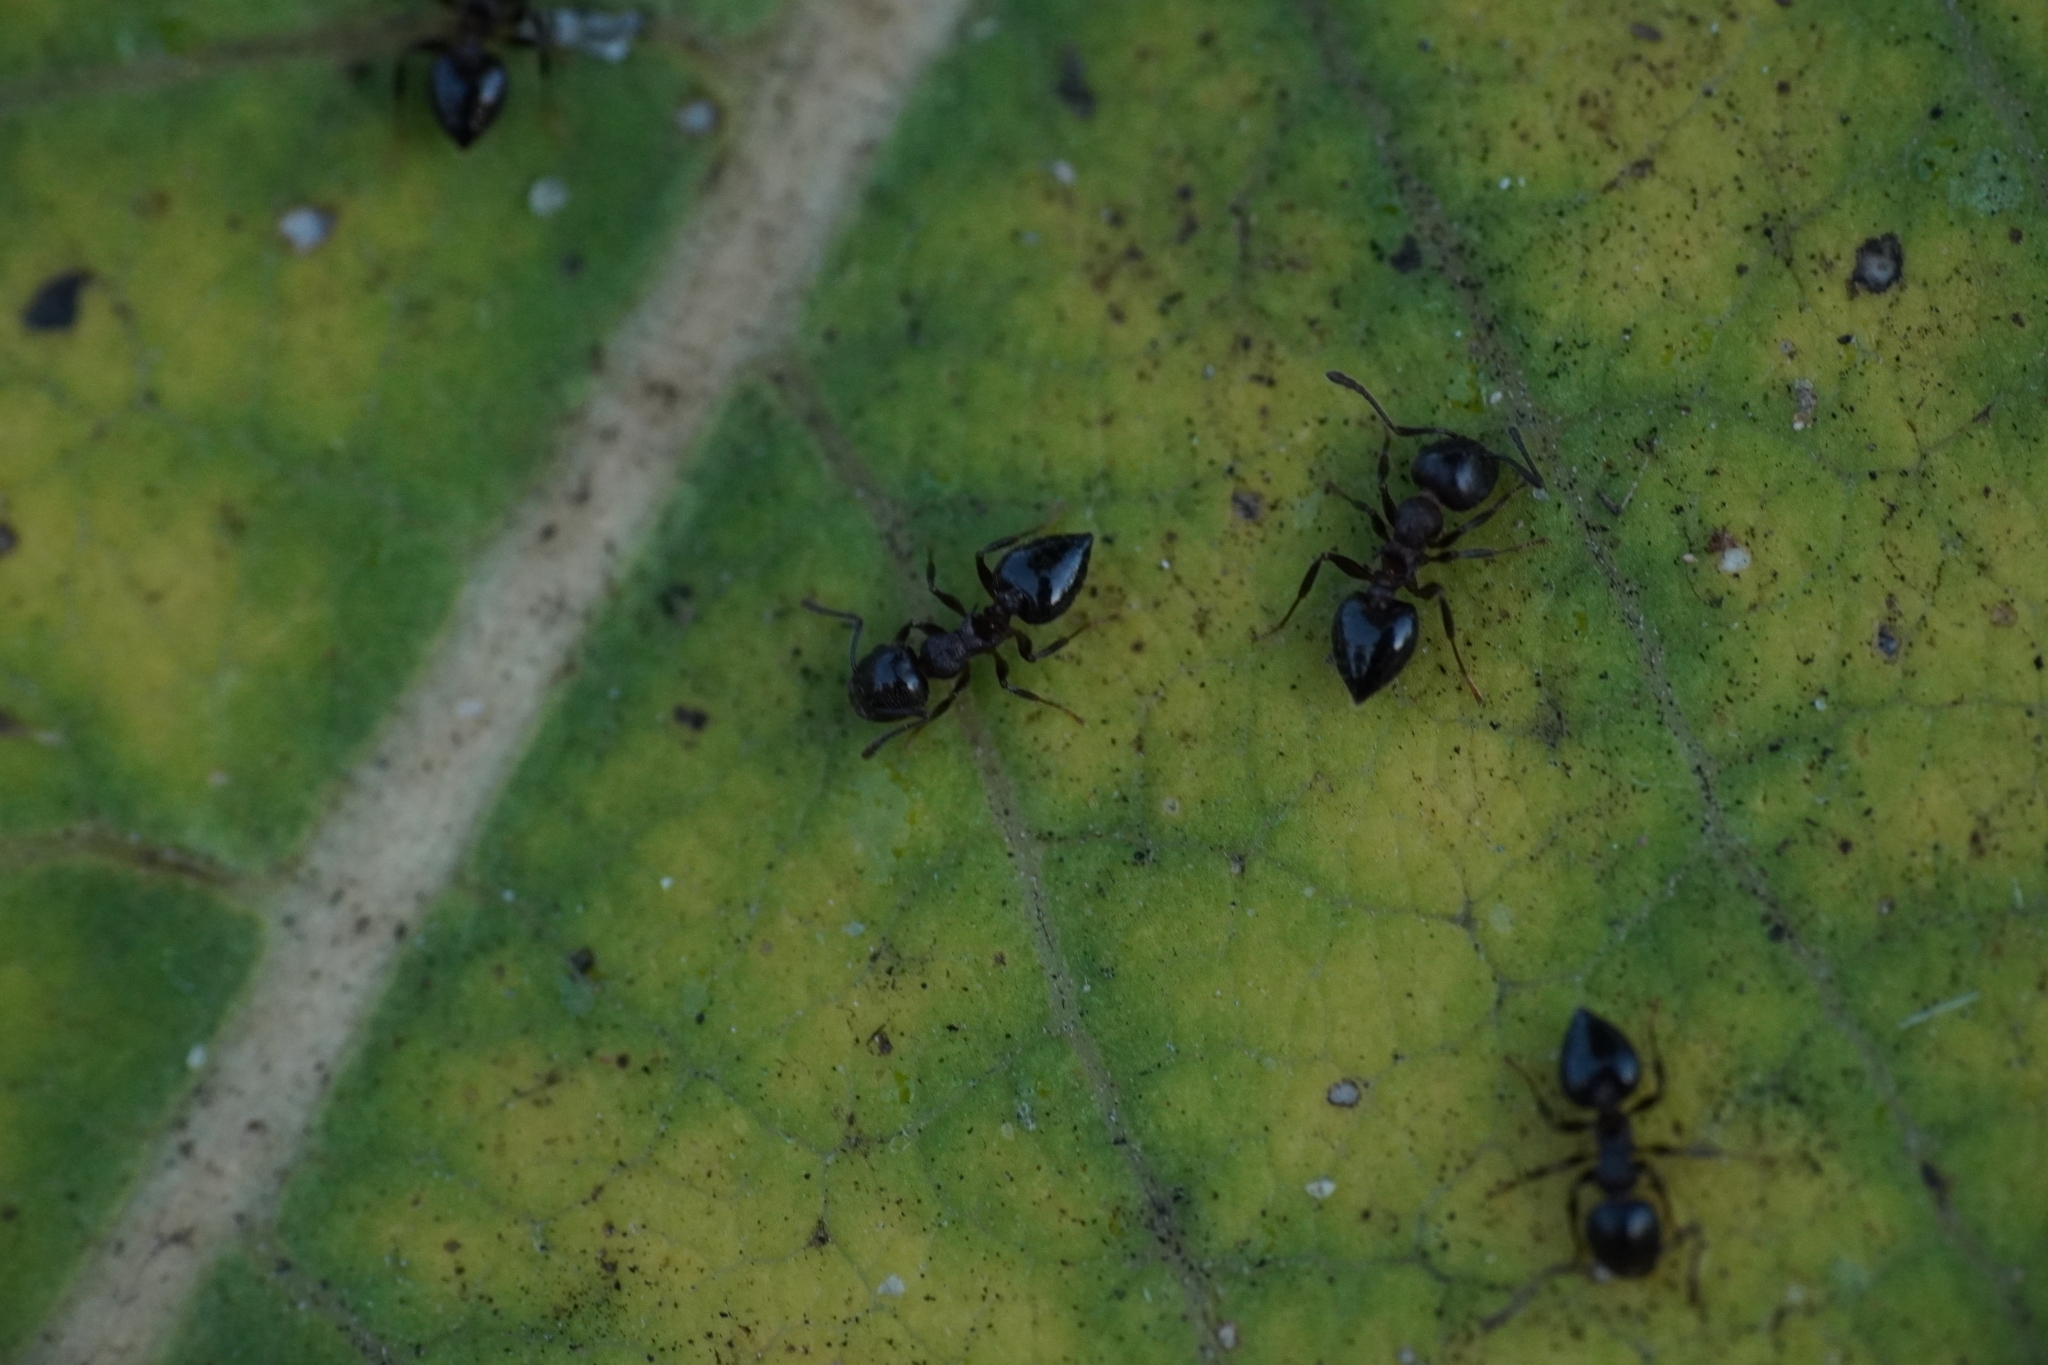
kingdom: Animalia
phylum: Arthropoda
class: Insecta
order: Hymenoptera
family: Formicidae
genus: Crematogaster
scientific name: Crematogaster
